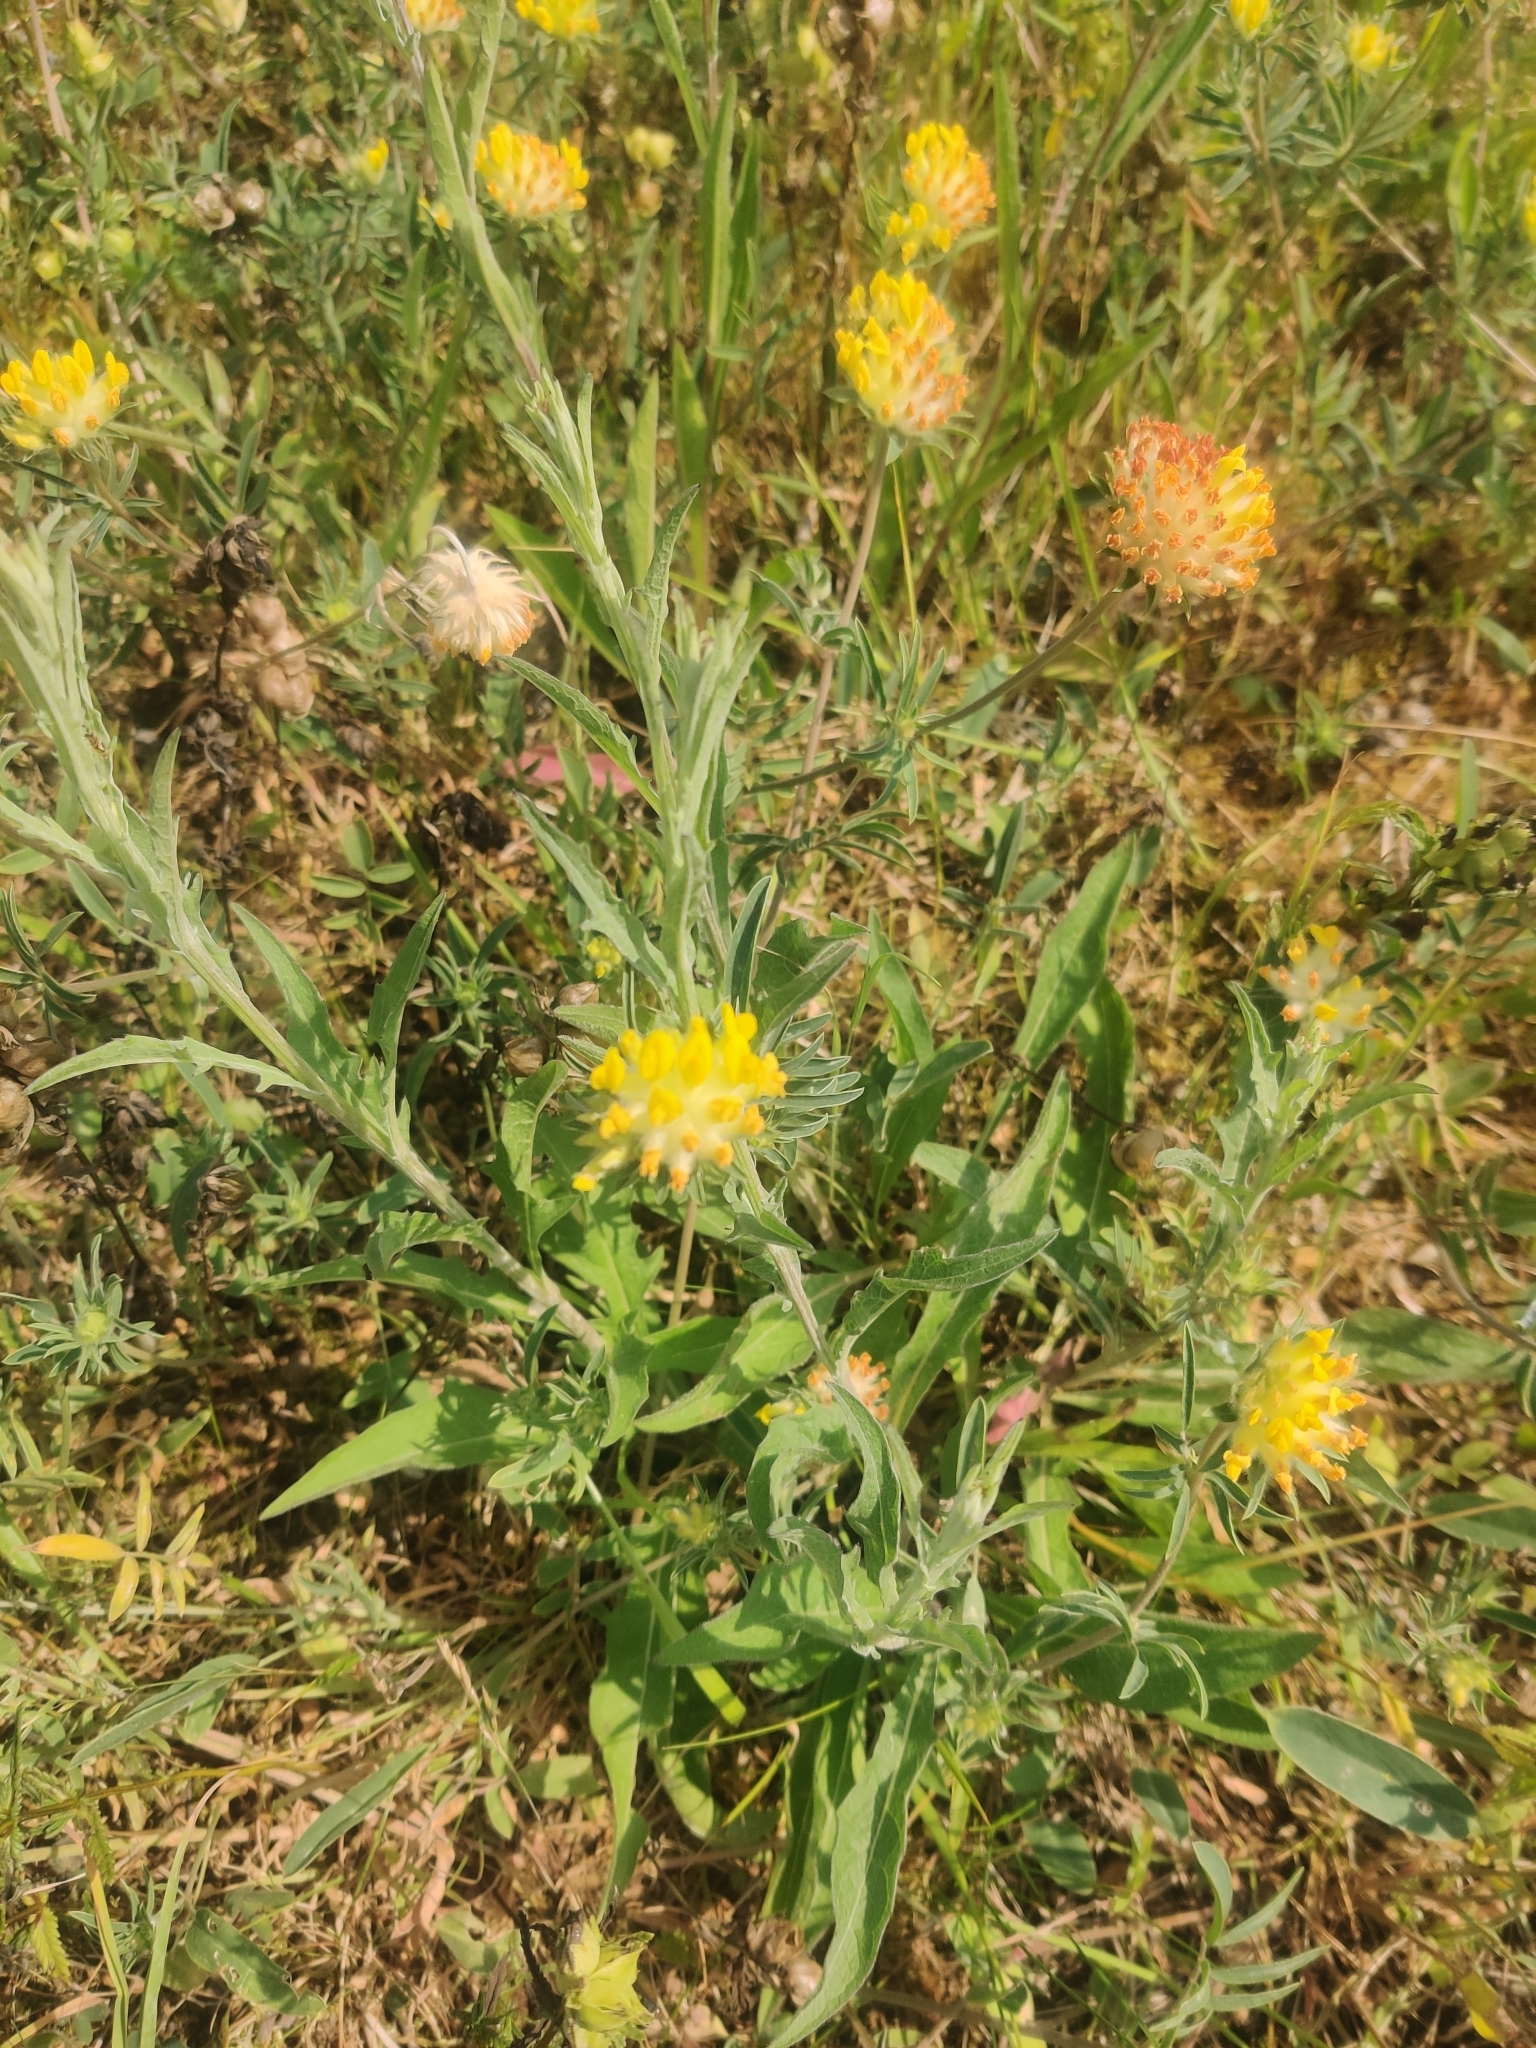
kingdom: Plantae
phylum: Tracheophyta
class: Magnoliopsida
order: Fabales
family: Fabaceae
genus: Anthyllis
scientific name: Anthyllis vulneraria
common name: Kidney vetch
